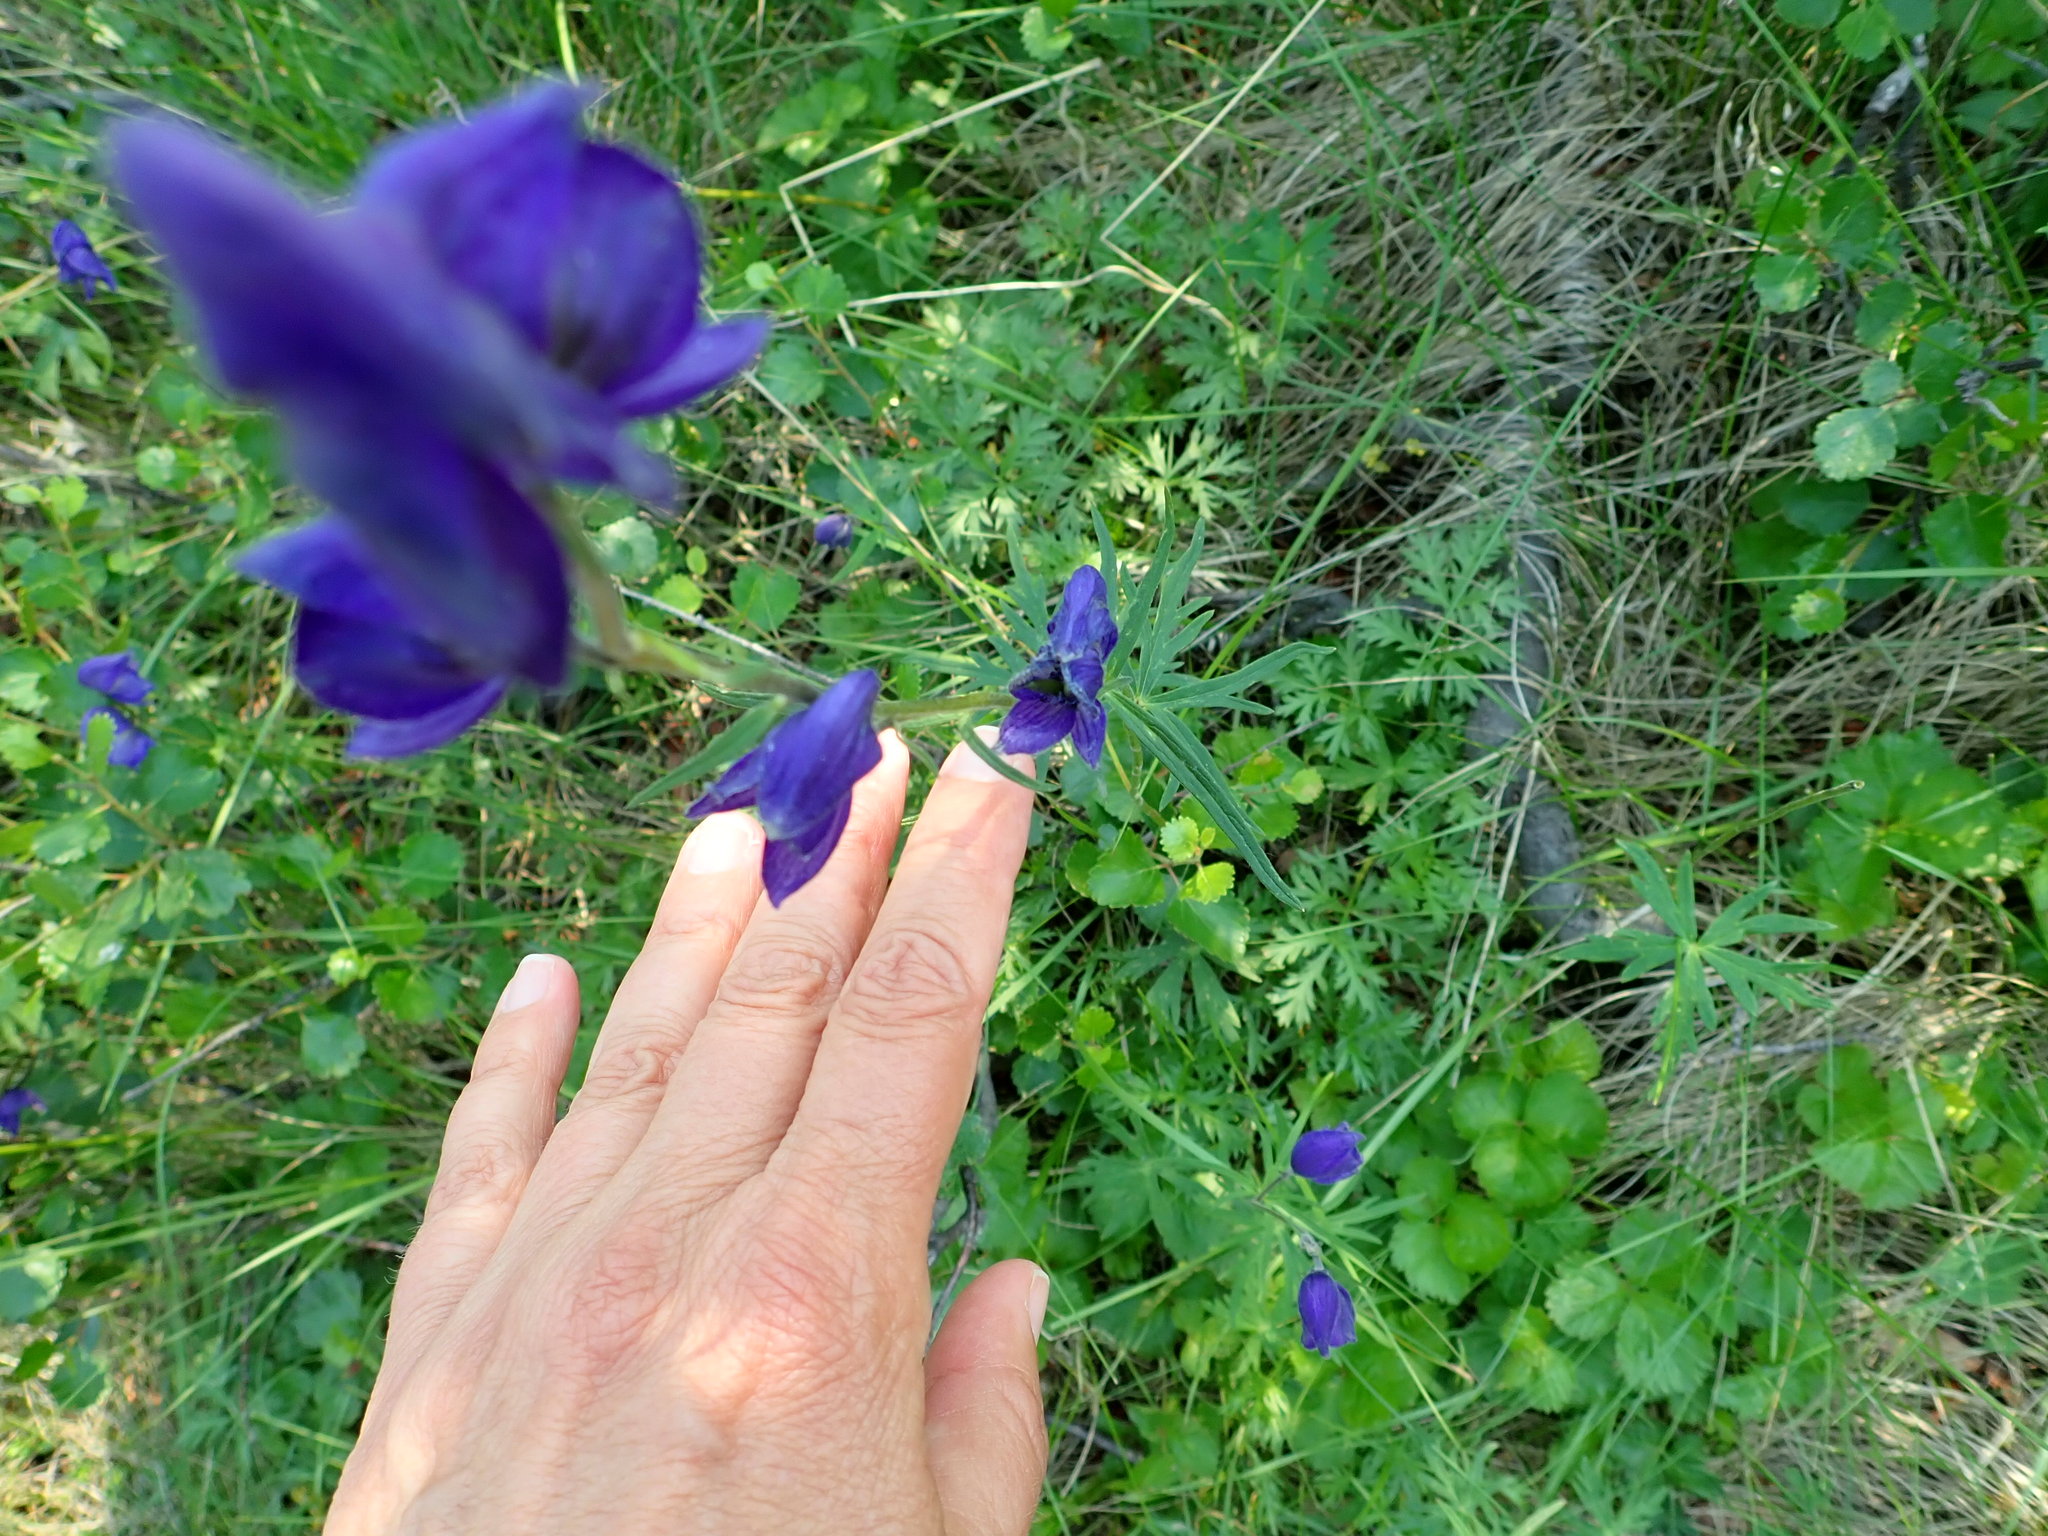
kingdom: Plantae
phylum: Tracheophyta
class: Magnoliopsida
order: Ranunculales
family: Ranunculaceae
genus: Aconitum
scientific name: Aconitum delphiniifolium
